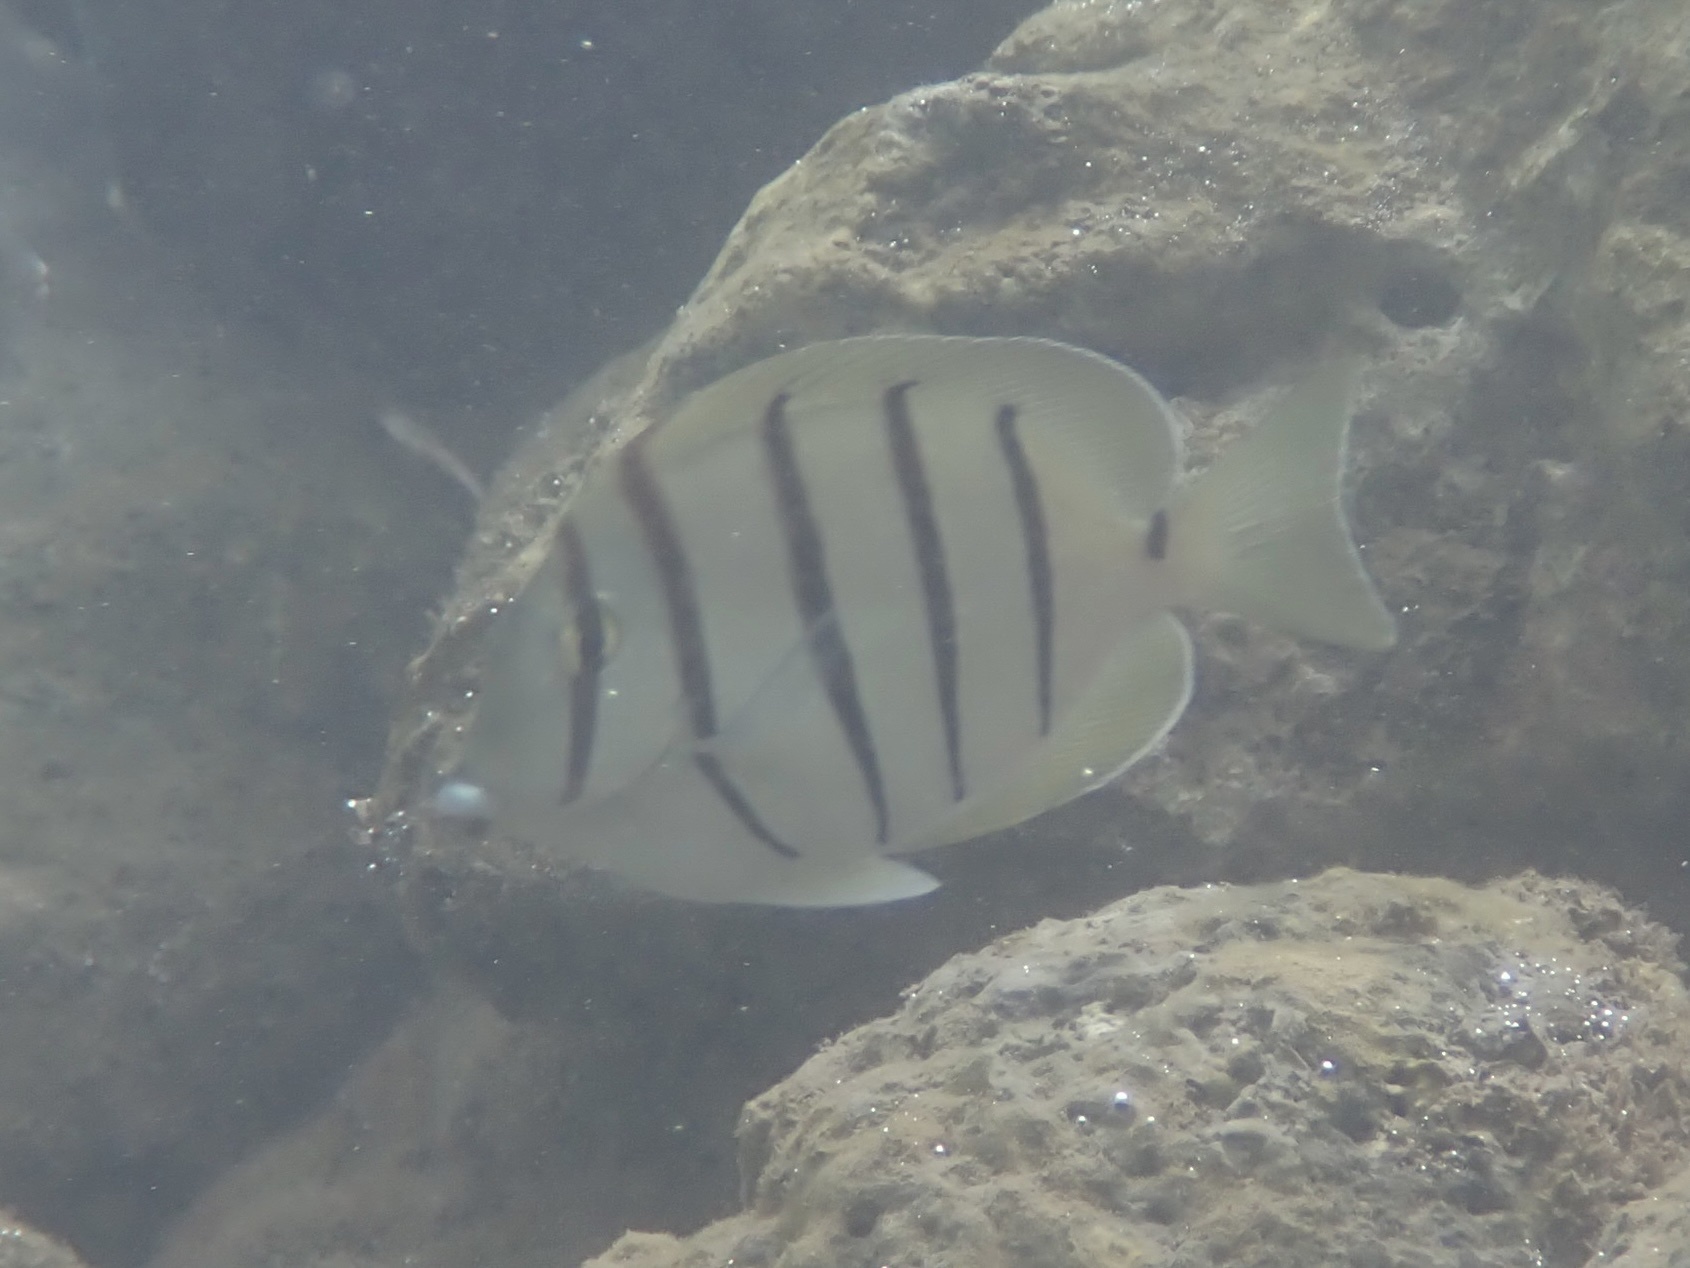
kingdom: Animalia
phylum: Chordata
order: Perciformes
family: Acanthuridae
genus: Acanthurus
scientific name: Acanthurus triostegus
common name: Convict surgeonfish
